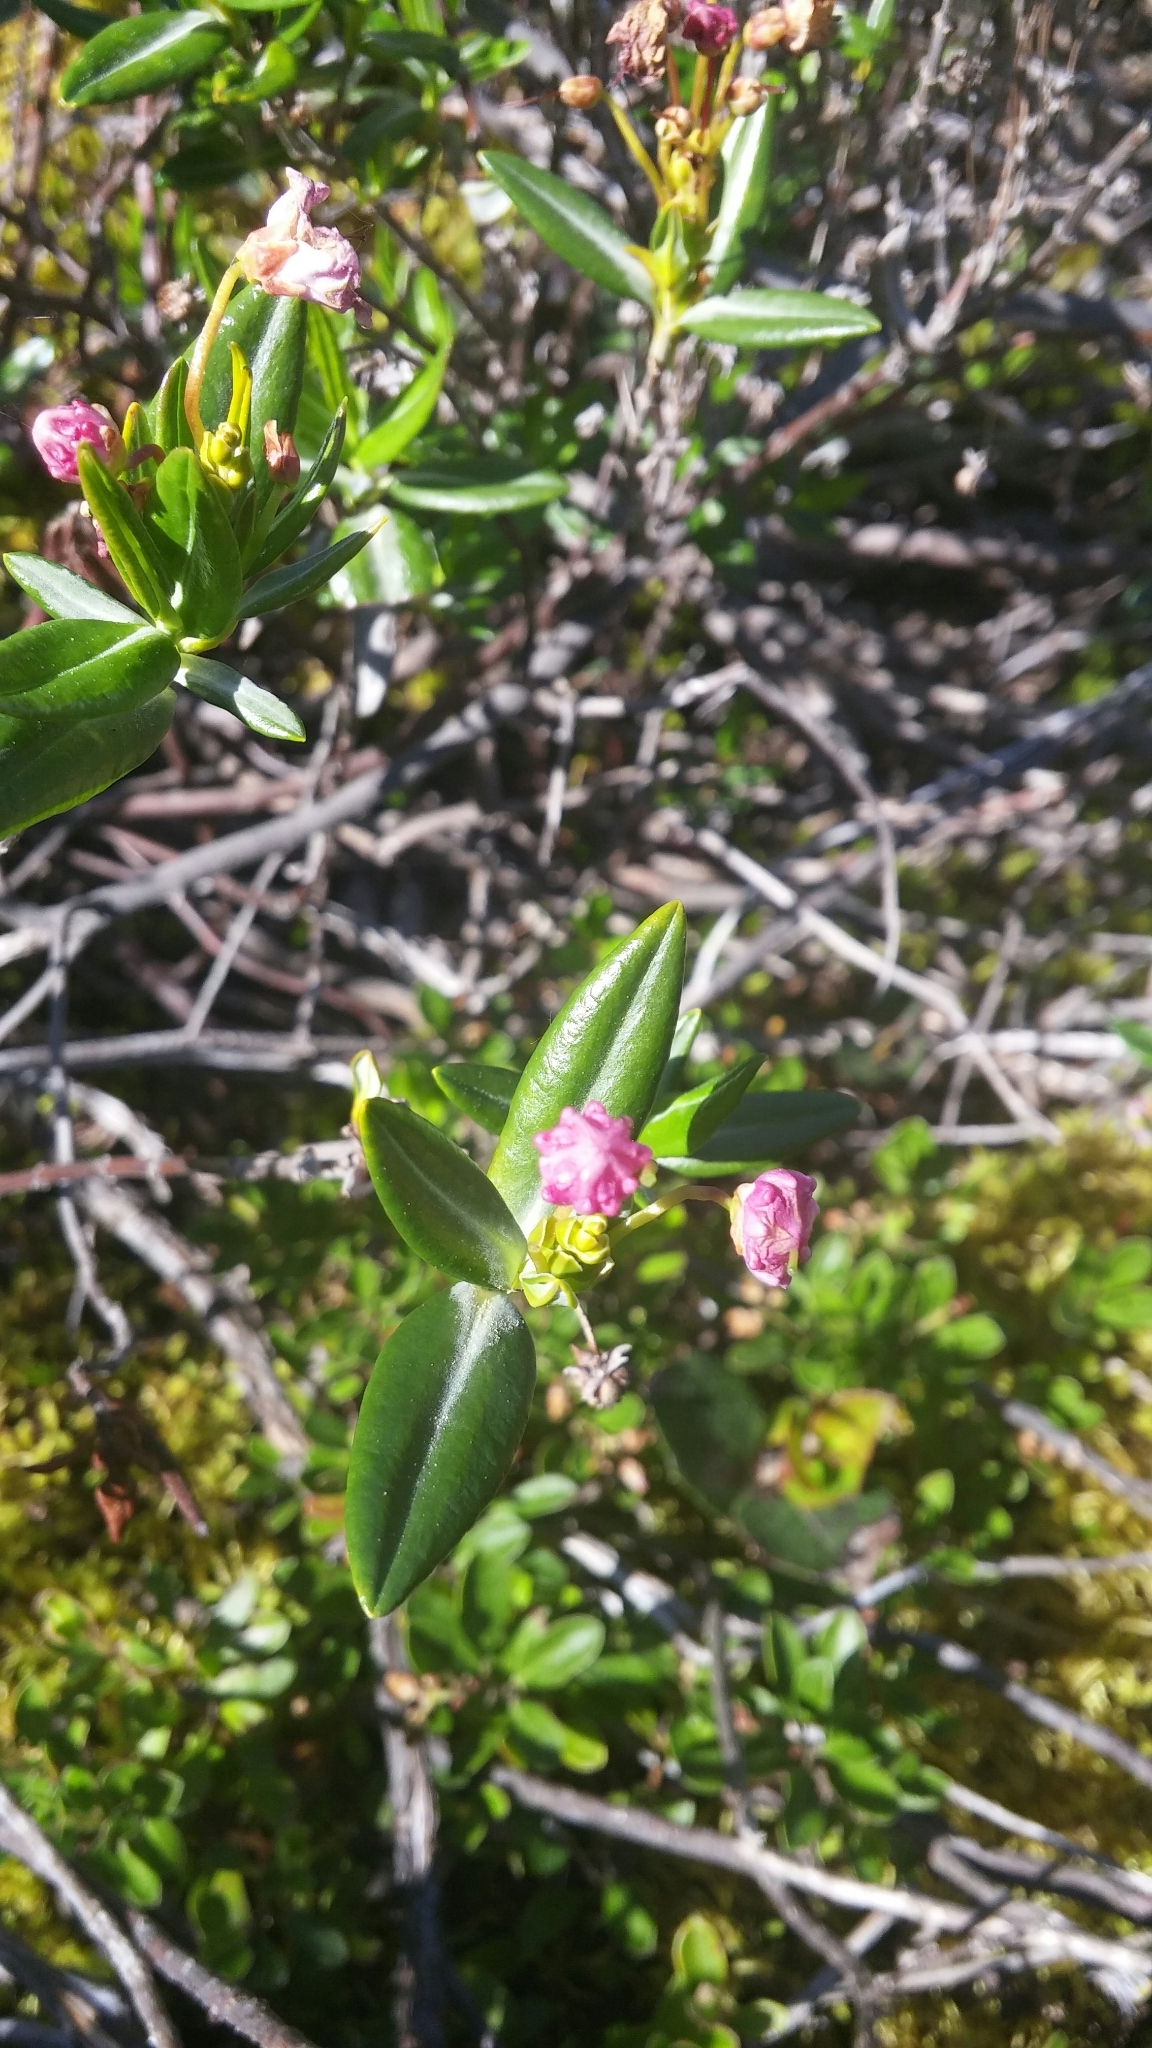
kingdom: Plantae
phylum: Tracheophyta
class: Magnoliopsida
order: Ericales
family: Ericaceae
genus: Kalmia
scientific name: Kalmia microphylla
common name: Alpine bog laurel
